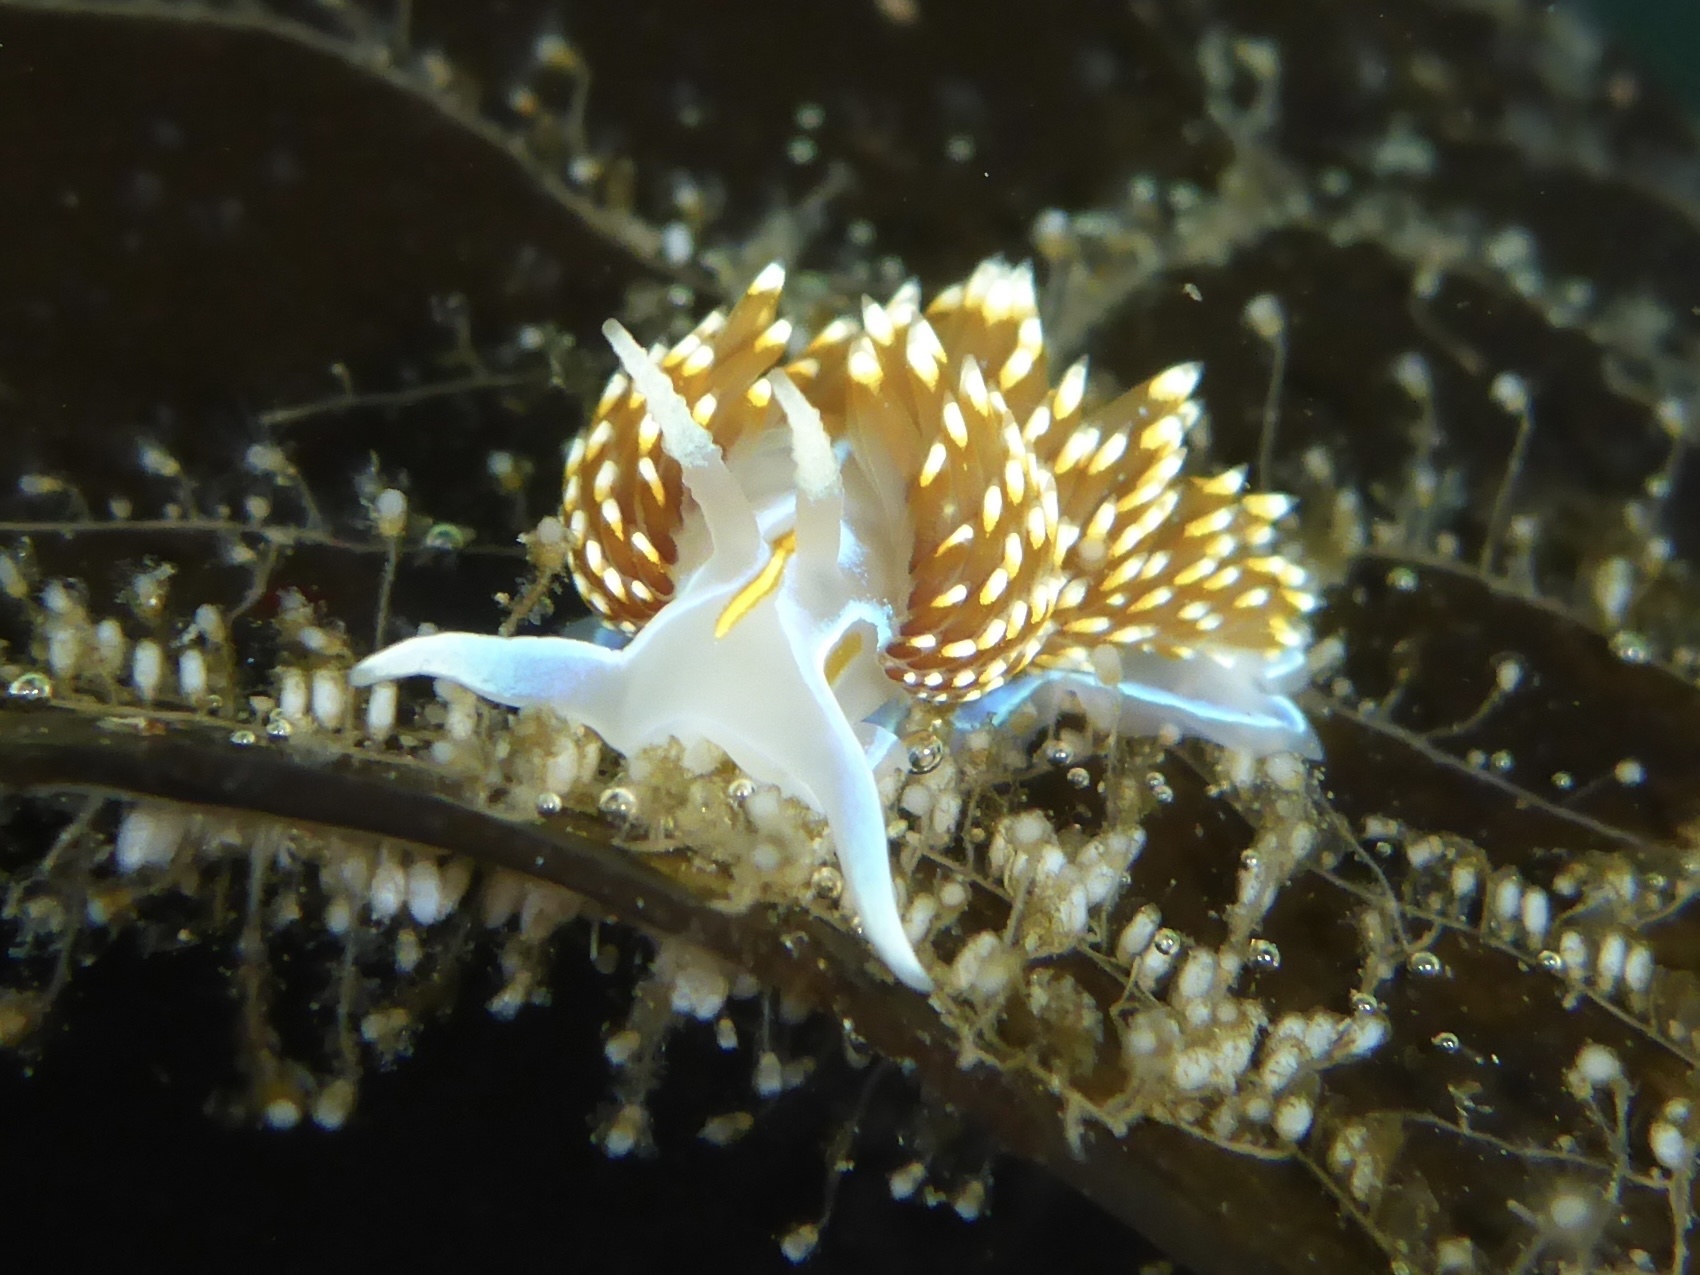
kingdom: Animalia
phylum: Mollusca
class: Gastropoda
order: Nudibranchia
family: Myrrhinidae
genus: Hermissenda
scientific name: Hermissenda opalescens
